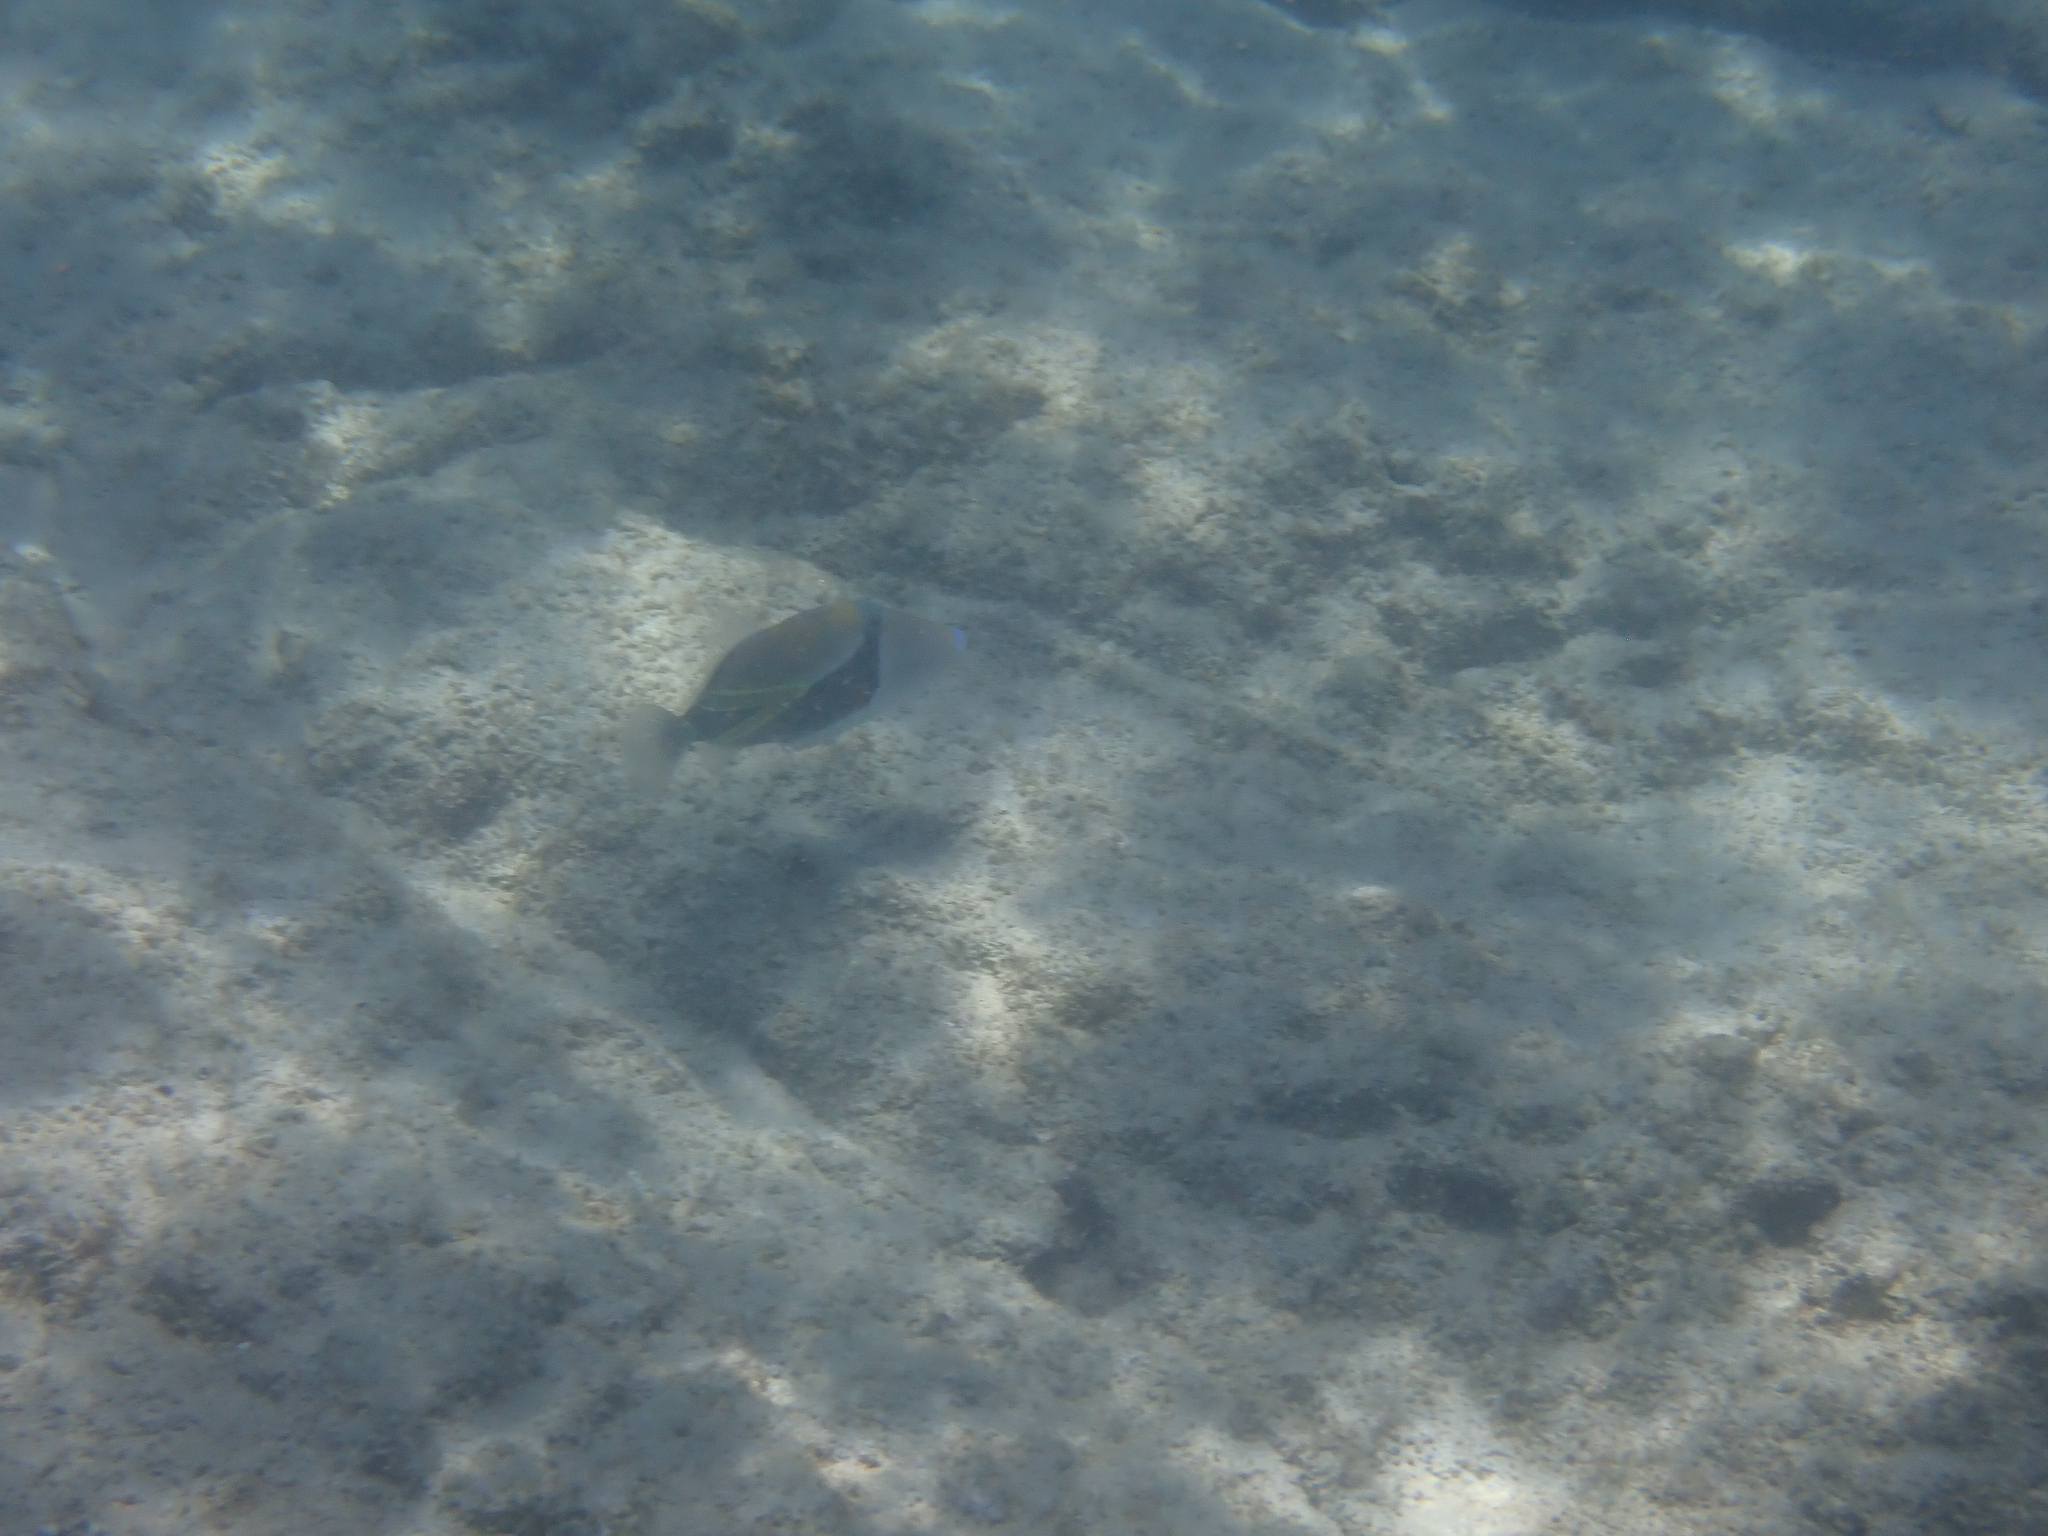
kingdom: Animalia
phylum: Chordata
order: Tetraodontiformes
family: Balistidae
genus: Rhinecanthus
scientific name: Rhinecanthus rectangulus
